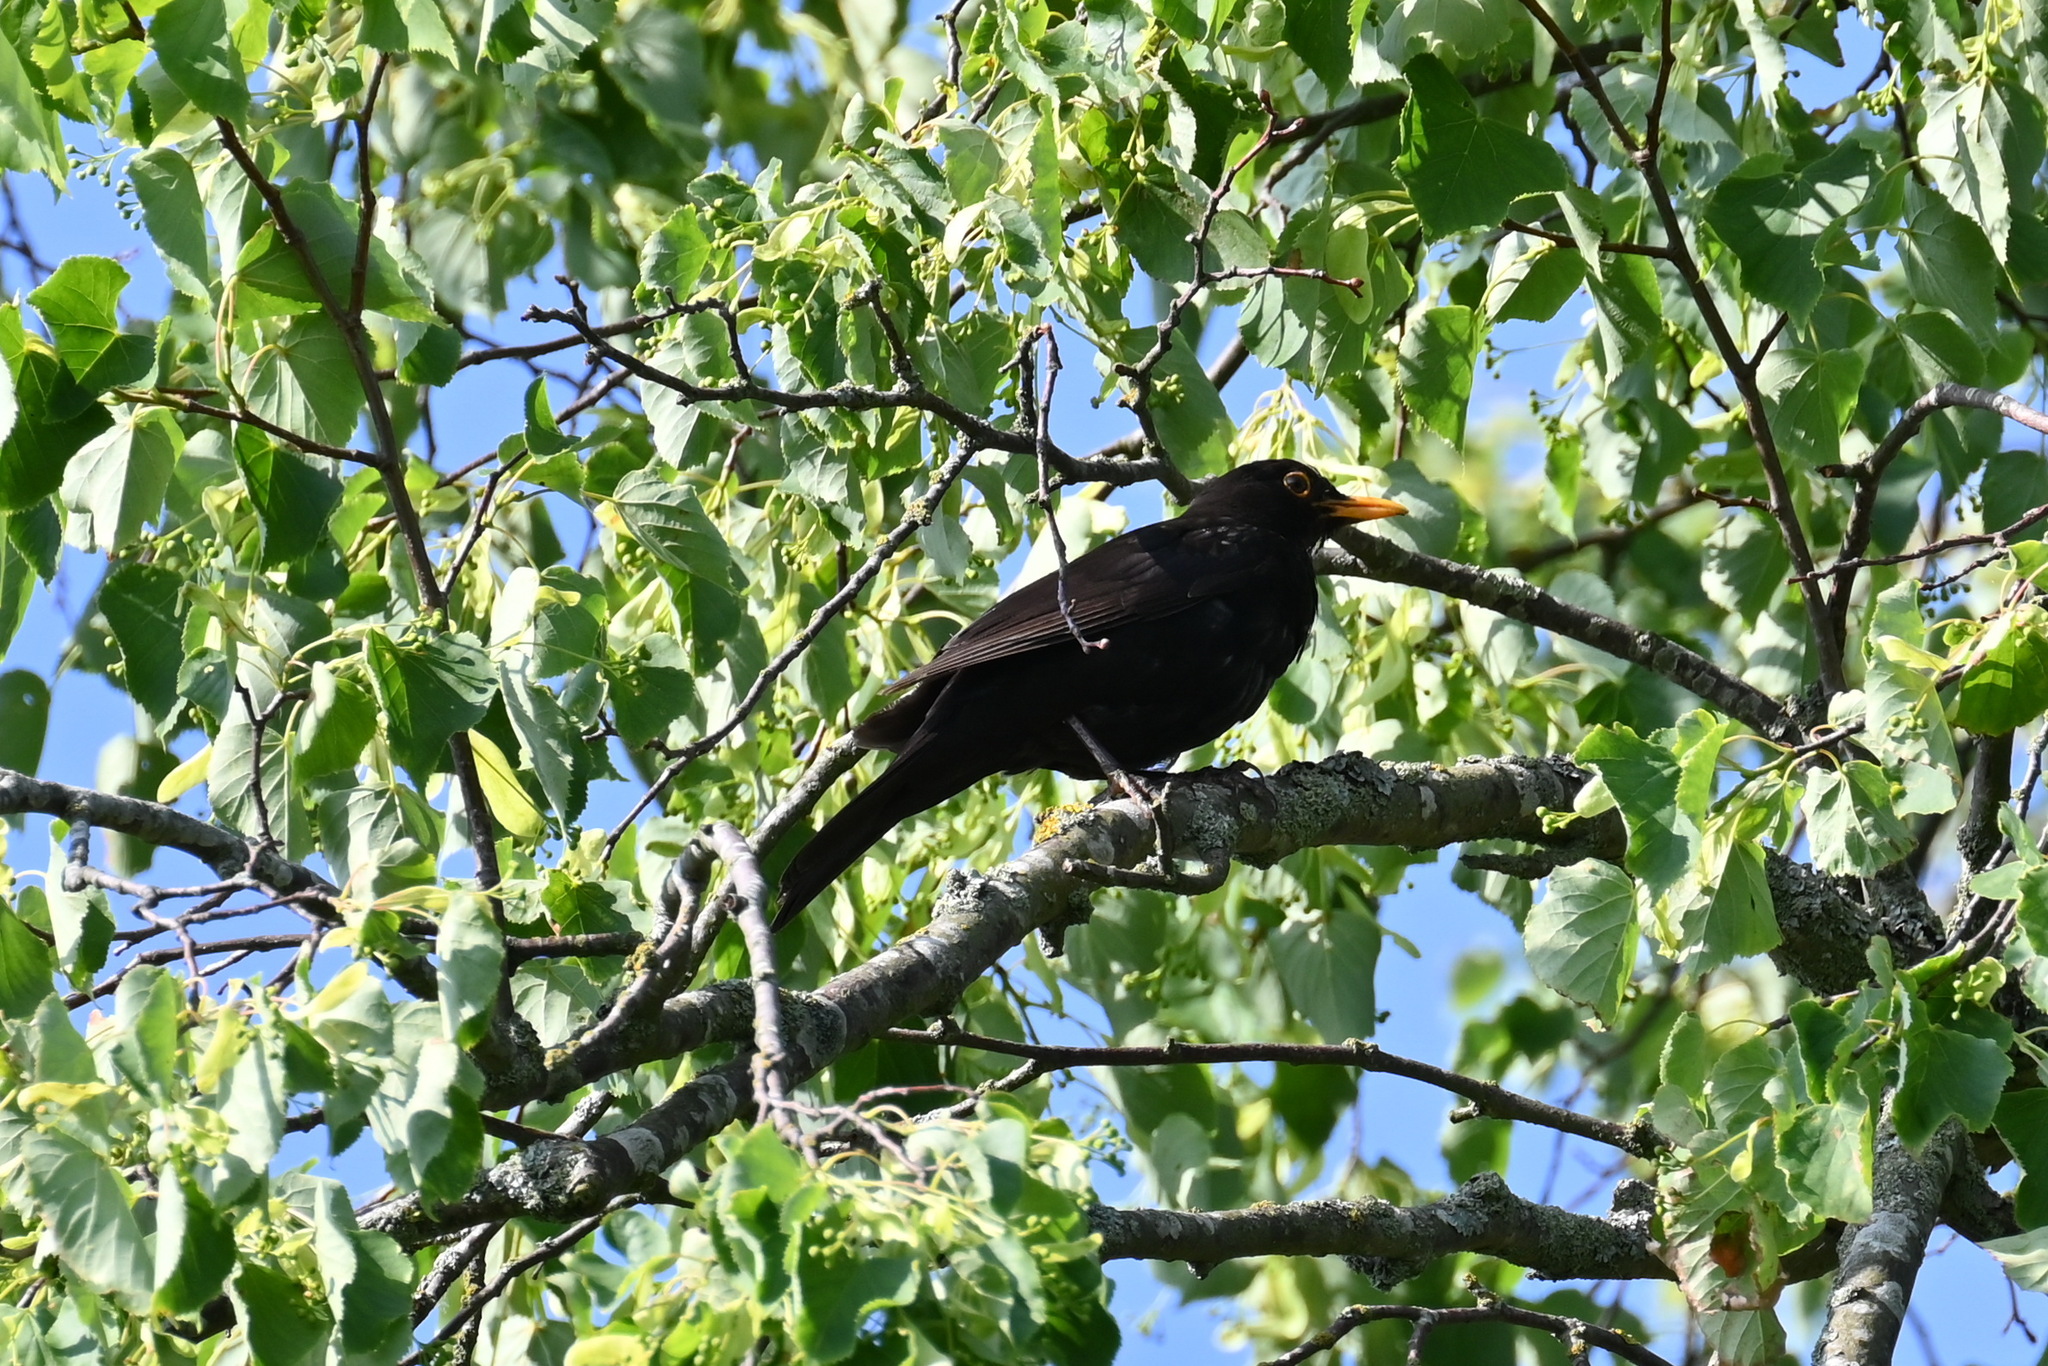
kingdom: Animalia
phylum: Chordata
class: Aves
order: Passeriformes
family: Turdidae
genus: Turdus
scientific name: Turdus merula
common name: Common blackbird
